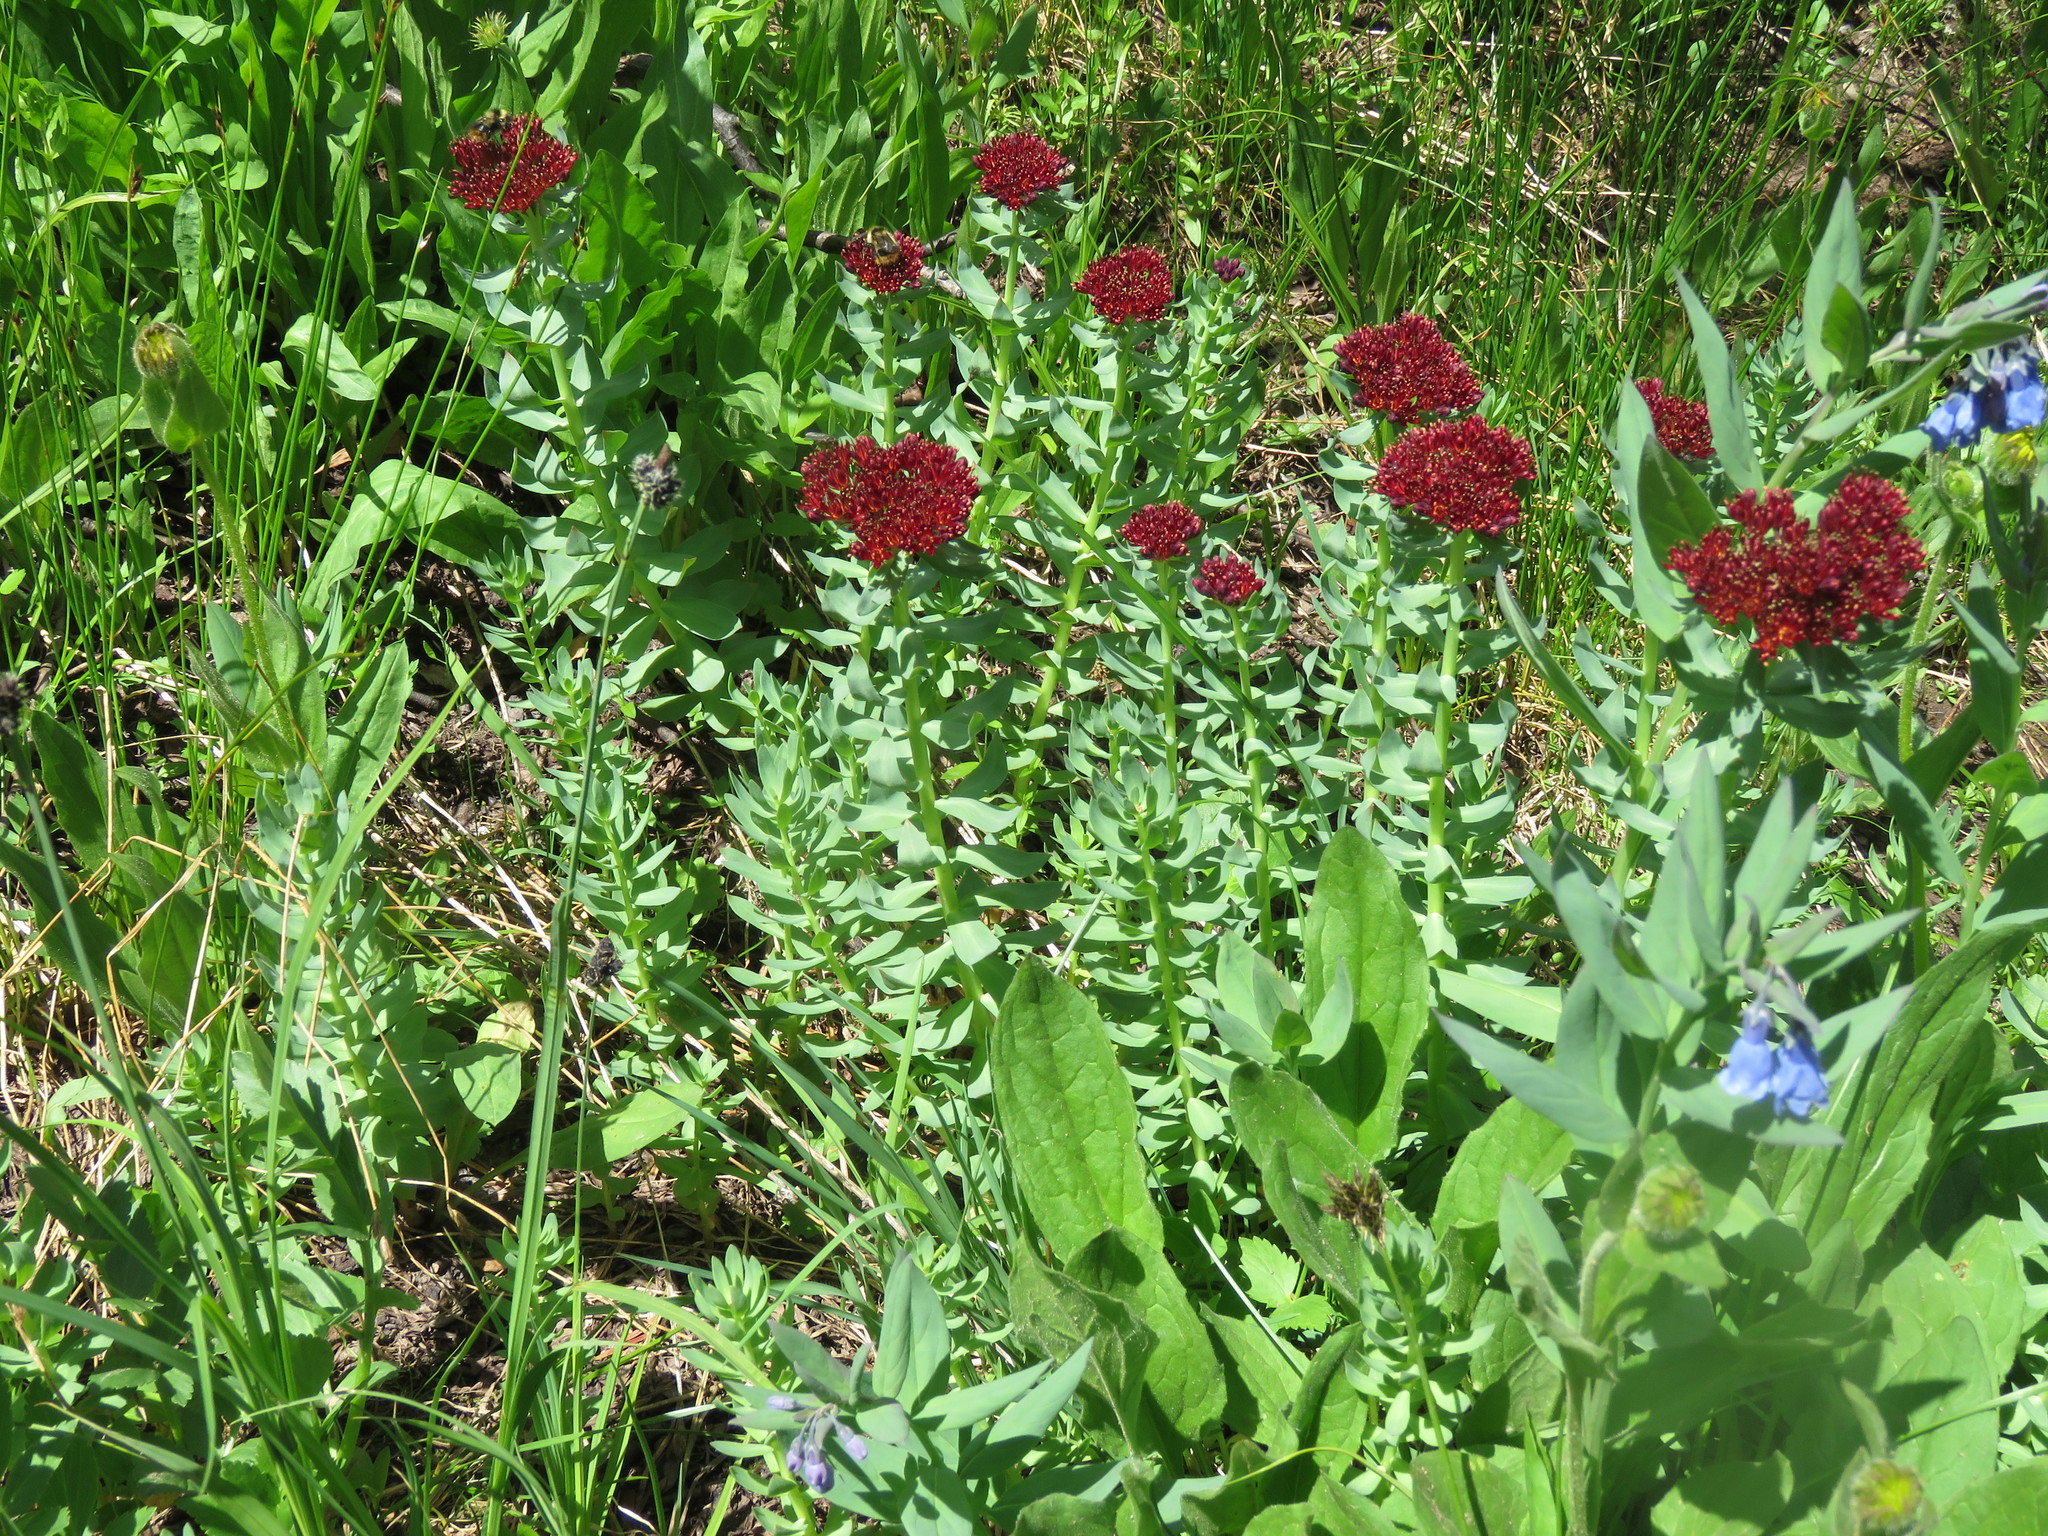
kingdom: Plantae
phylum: Tracheophyta
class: Magnoliopsida
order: Saxifragales
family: Crassulaceae
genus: Rhodiola
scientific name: Rhodiola integrifolia
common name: Western roseroot
